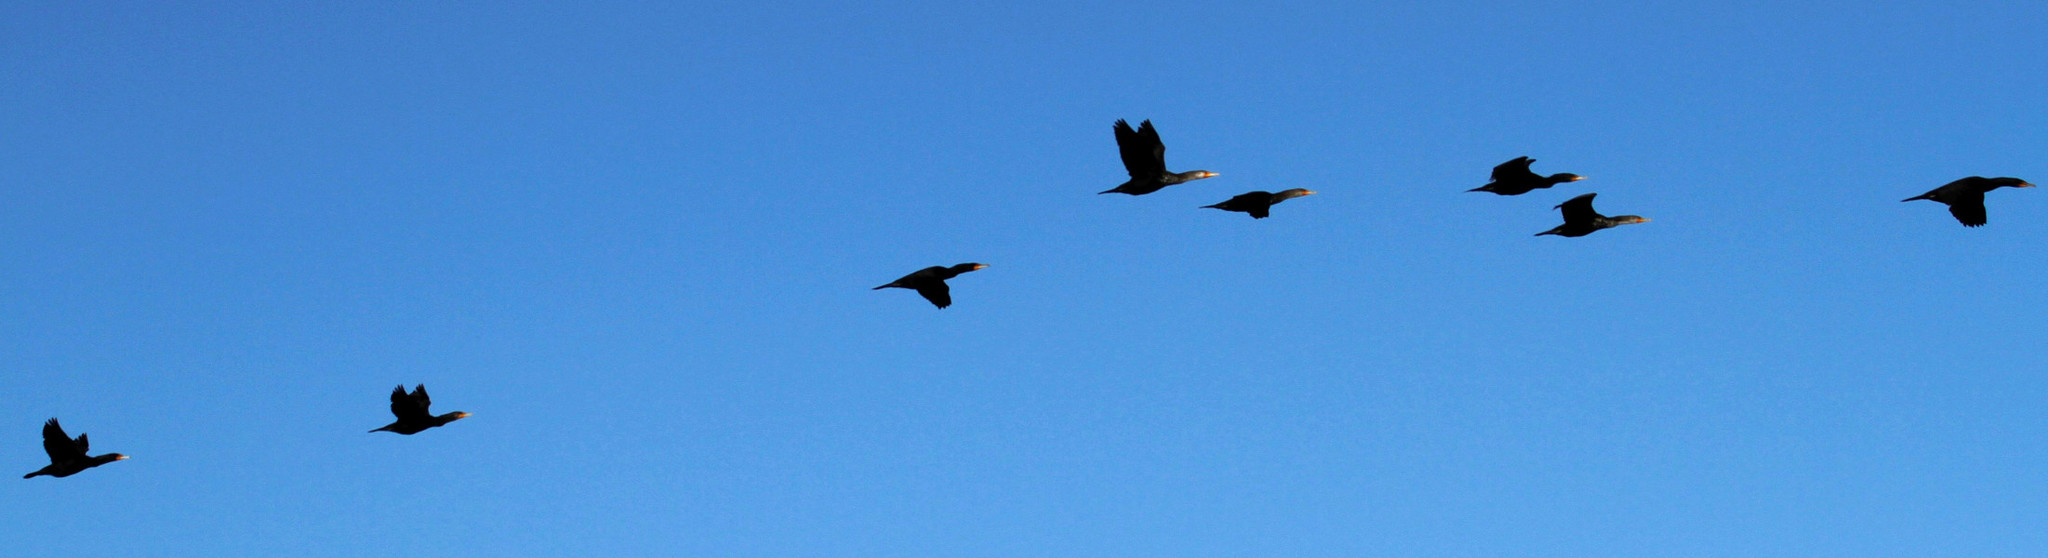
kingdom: Animalia
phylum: Chordata
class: Aves
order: Suliformes
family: Phalacrocoracidae
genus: Phalacrocorax
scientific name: Phalacrocorax auritus
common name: Double-crested cormorant
